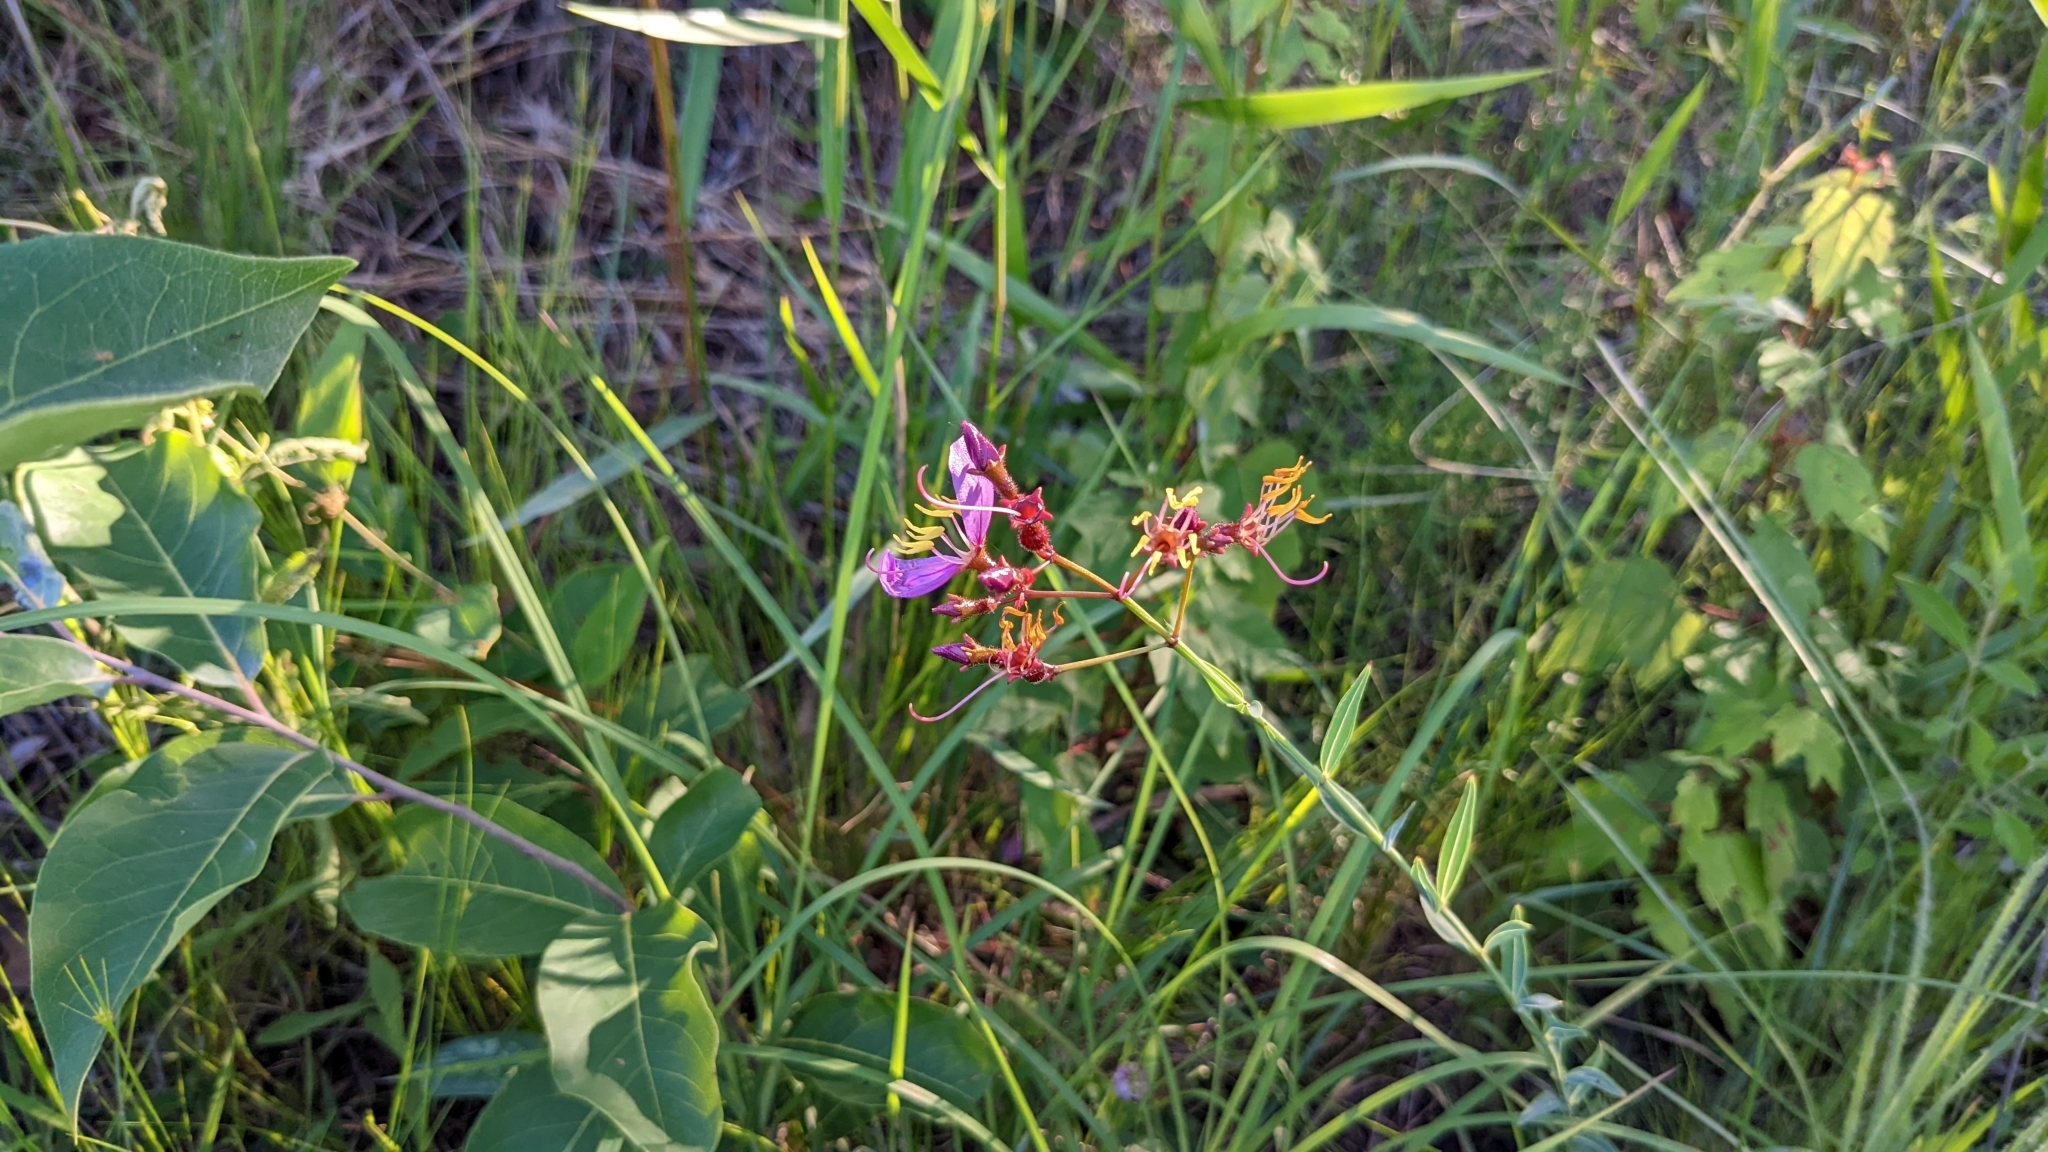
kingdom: Plantae
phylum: Tracheophyta
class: Magnoliopsida
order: Myrtales
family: Melastomataceae
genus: Rhexia
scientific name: Rhexia alifanus
